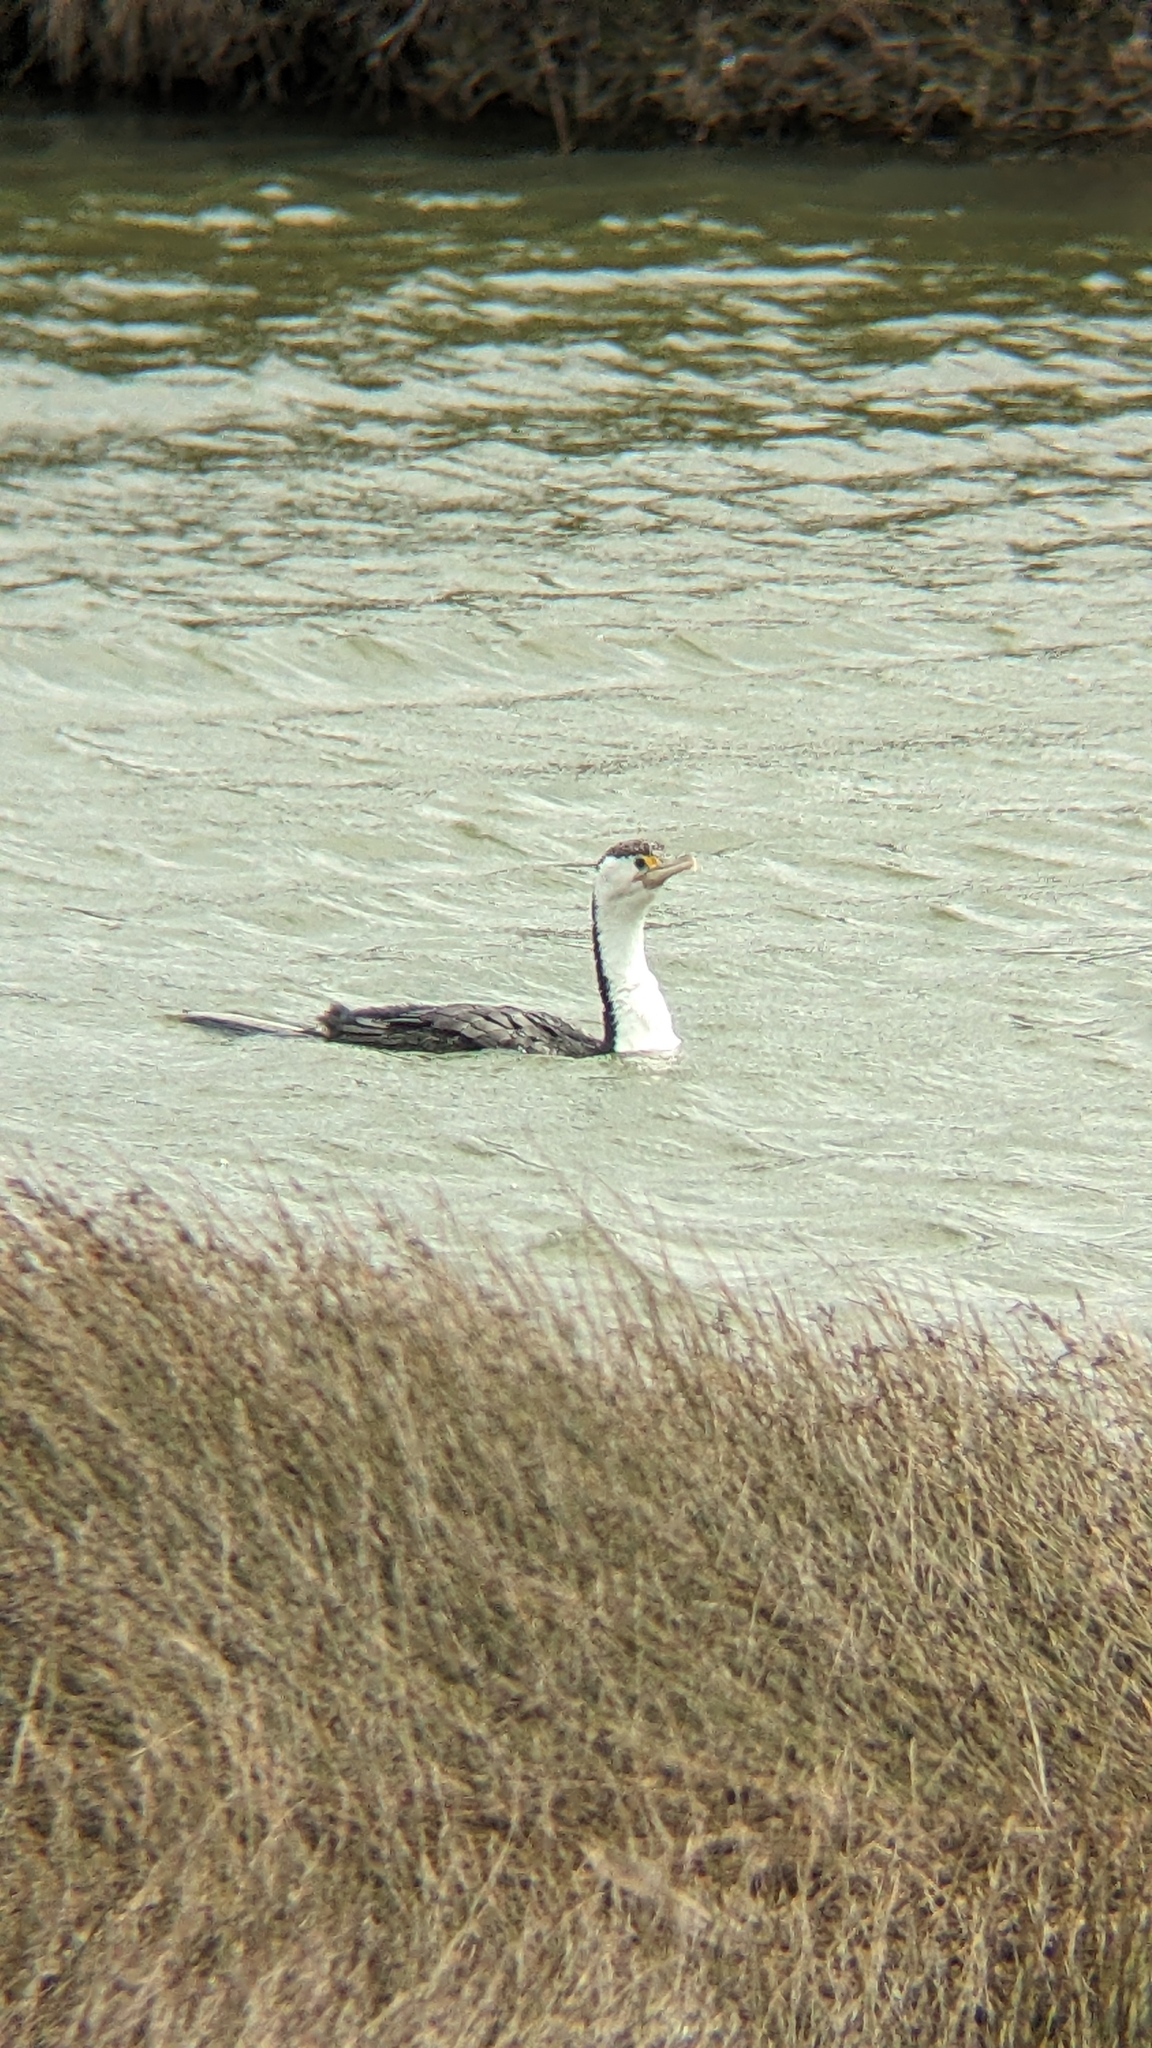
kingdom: Animalia
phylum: Chordata
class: Aves
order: Suliformes
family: Phalacrocoracidae
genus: Phalacrocorax
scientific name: Phalacrocorax varius
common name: Pied cormorant
